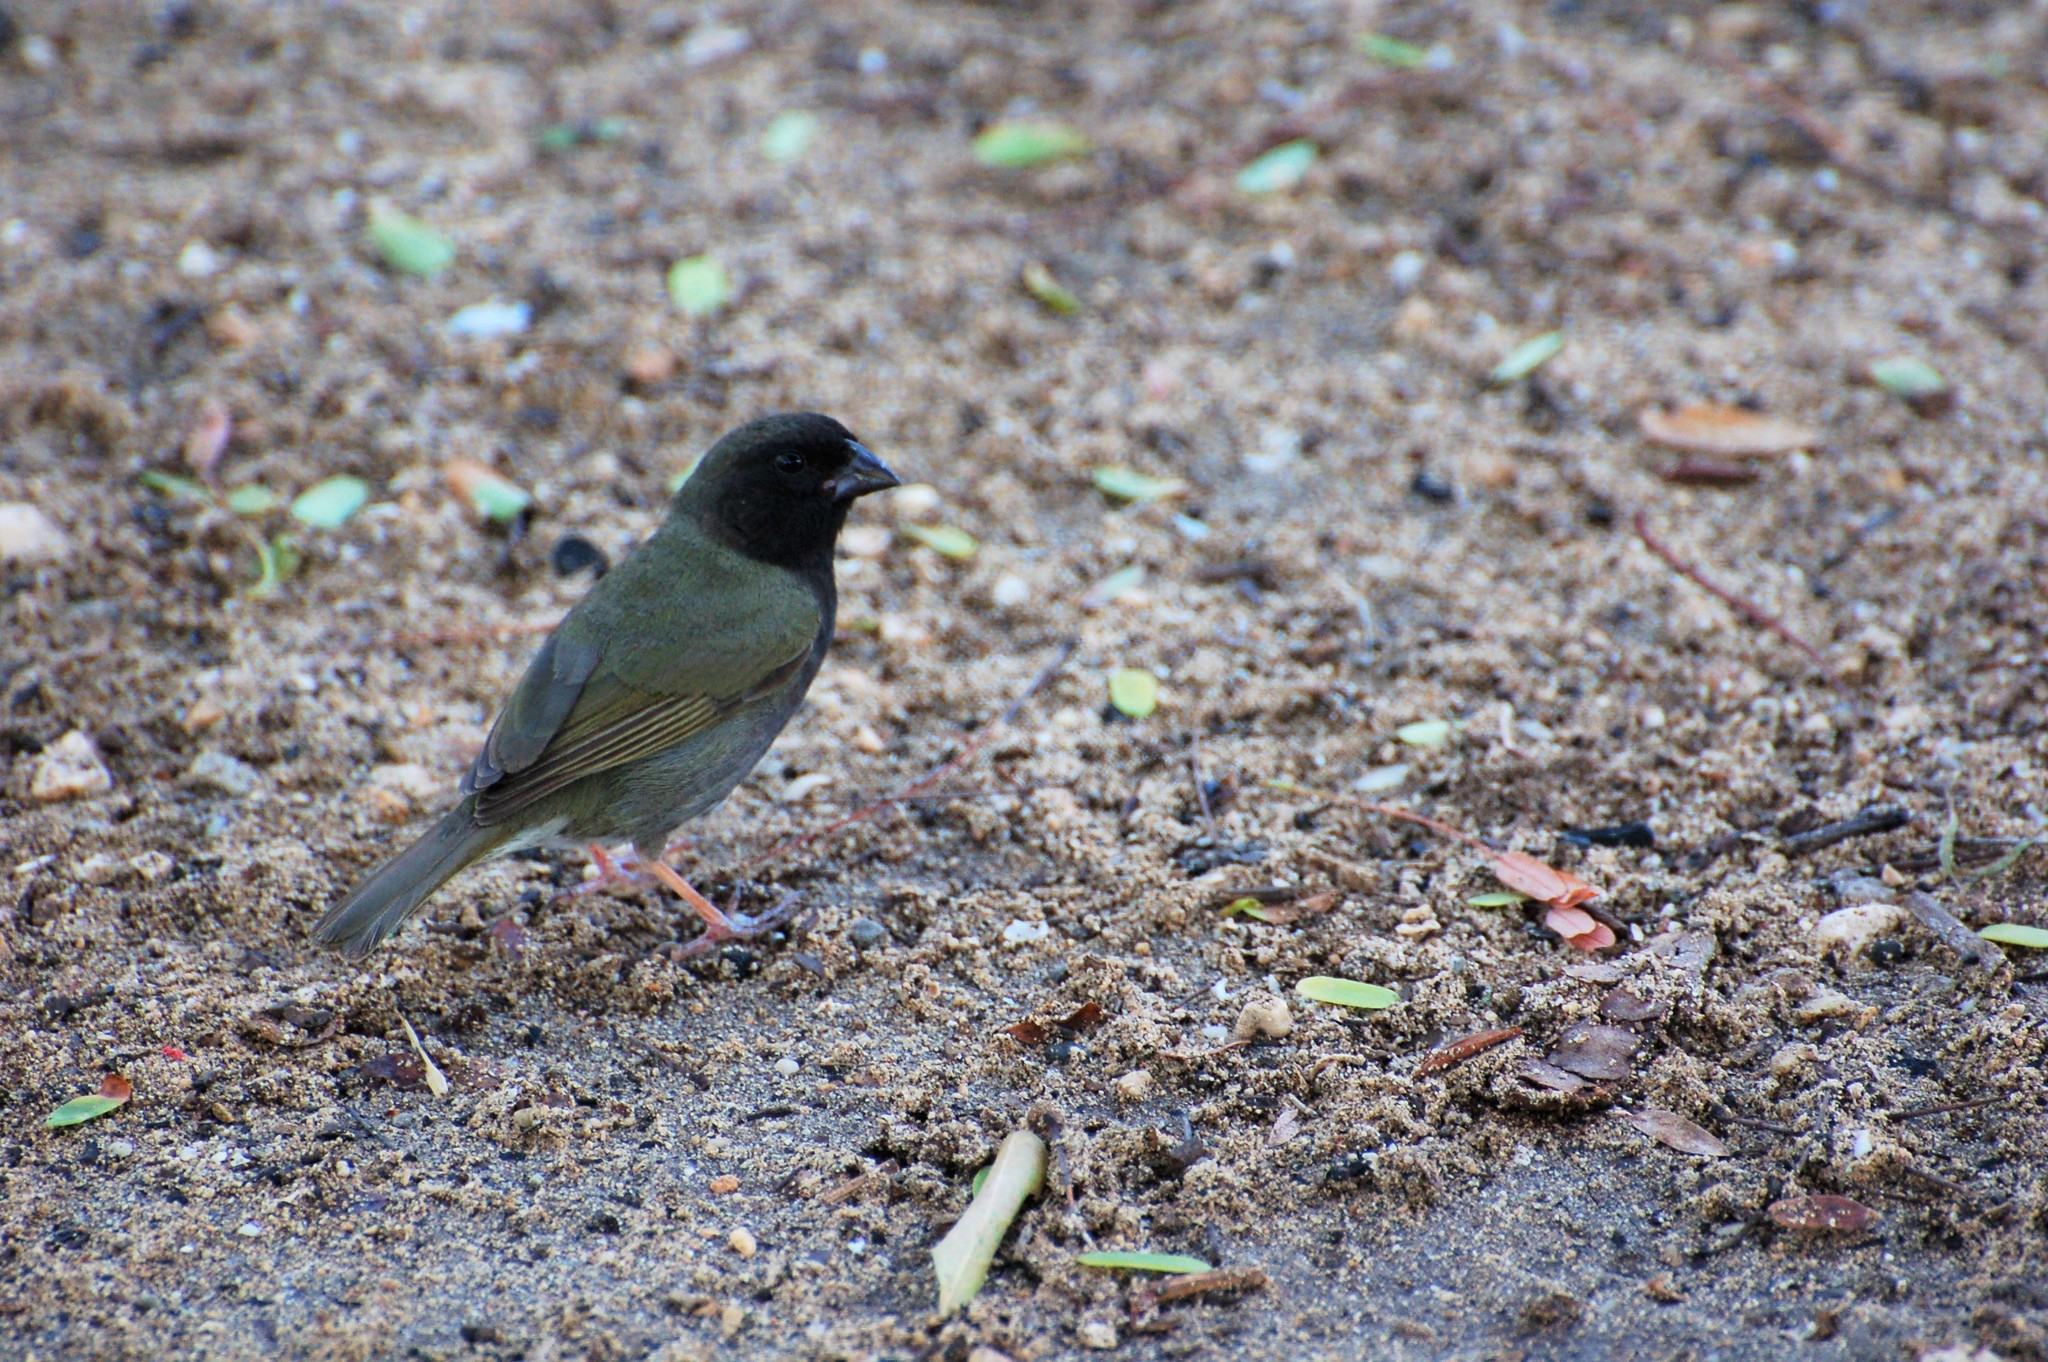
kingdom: Animalia
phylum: Chordata
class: Aves
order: Passeriformes
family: Thraupidae
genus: Melanospiza
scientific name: Melanospiza bicolor
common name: Black-faced grassquit
